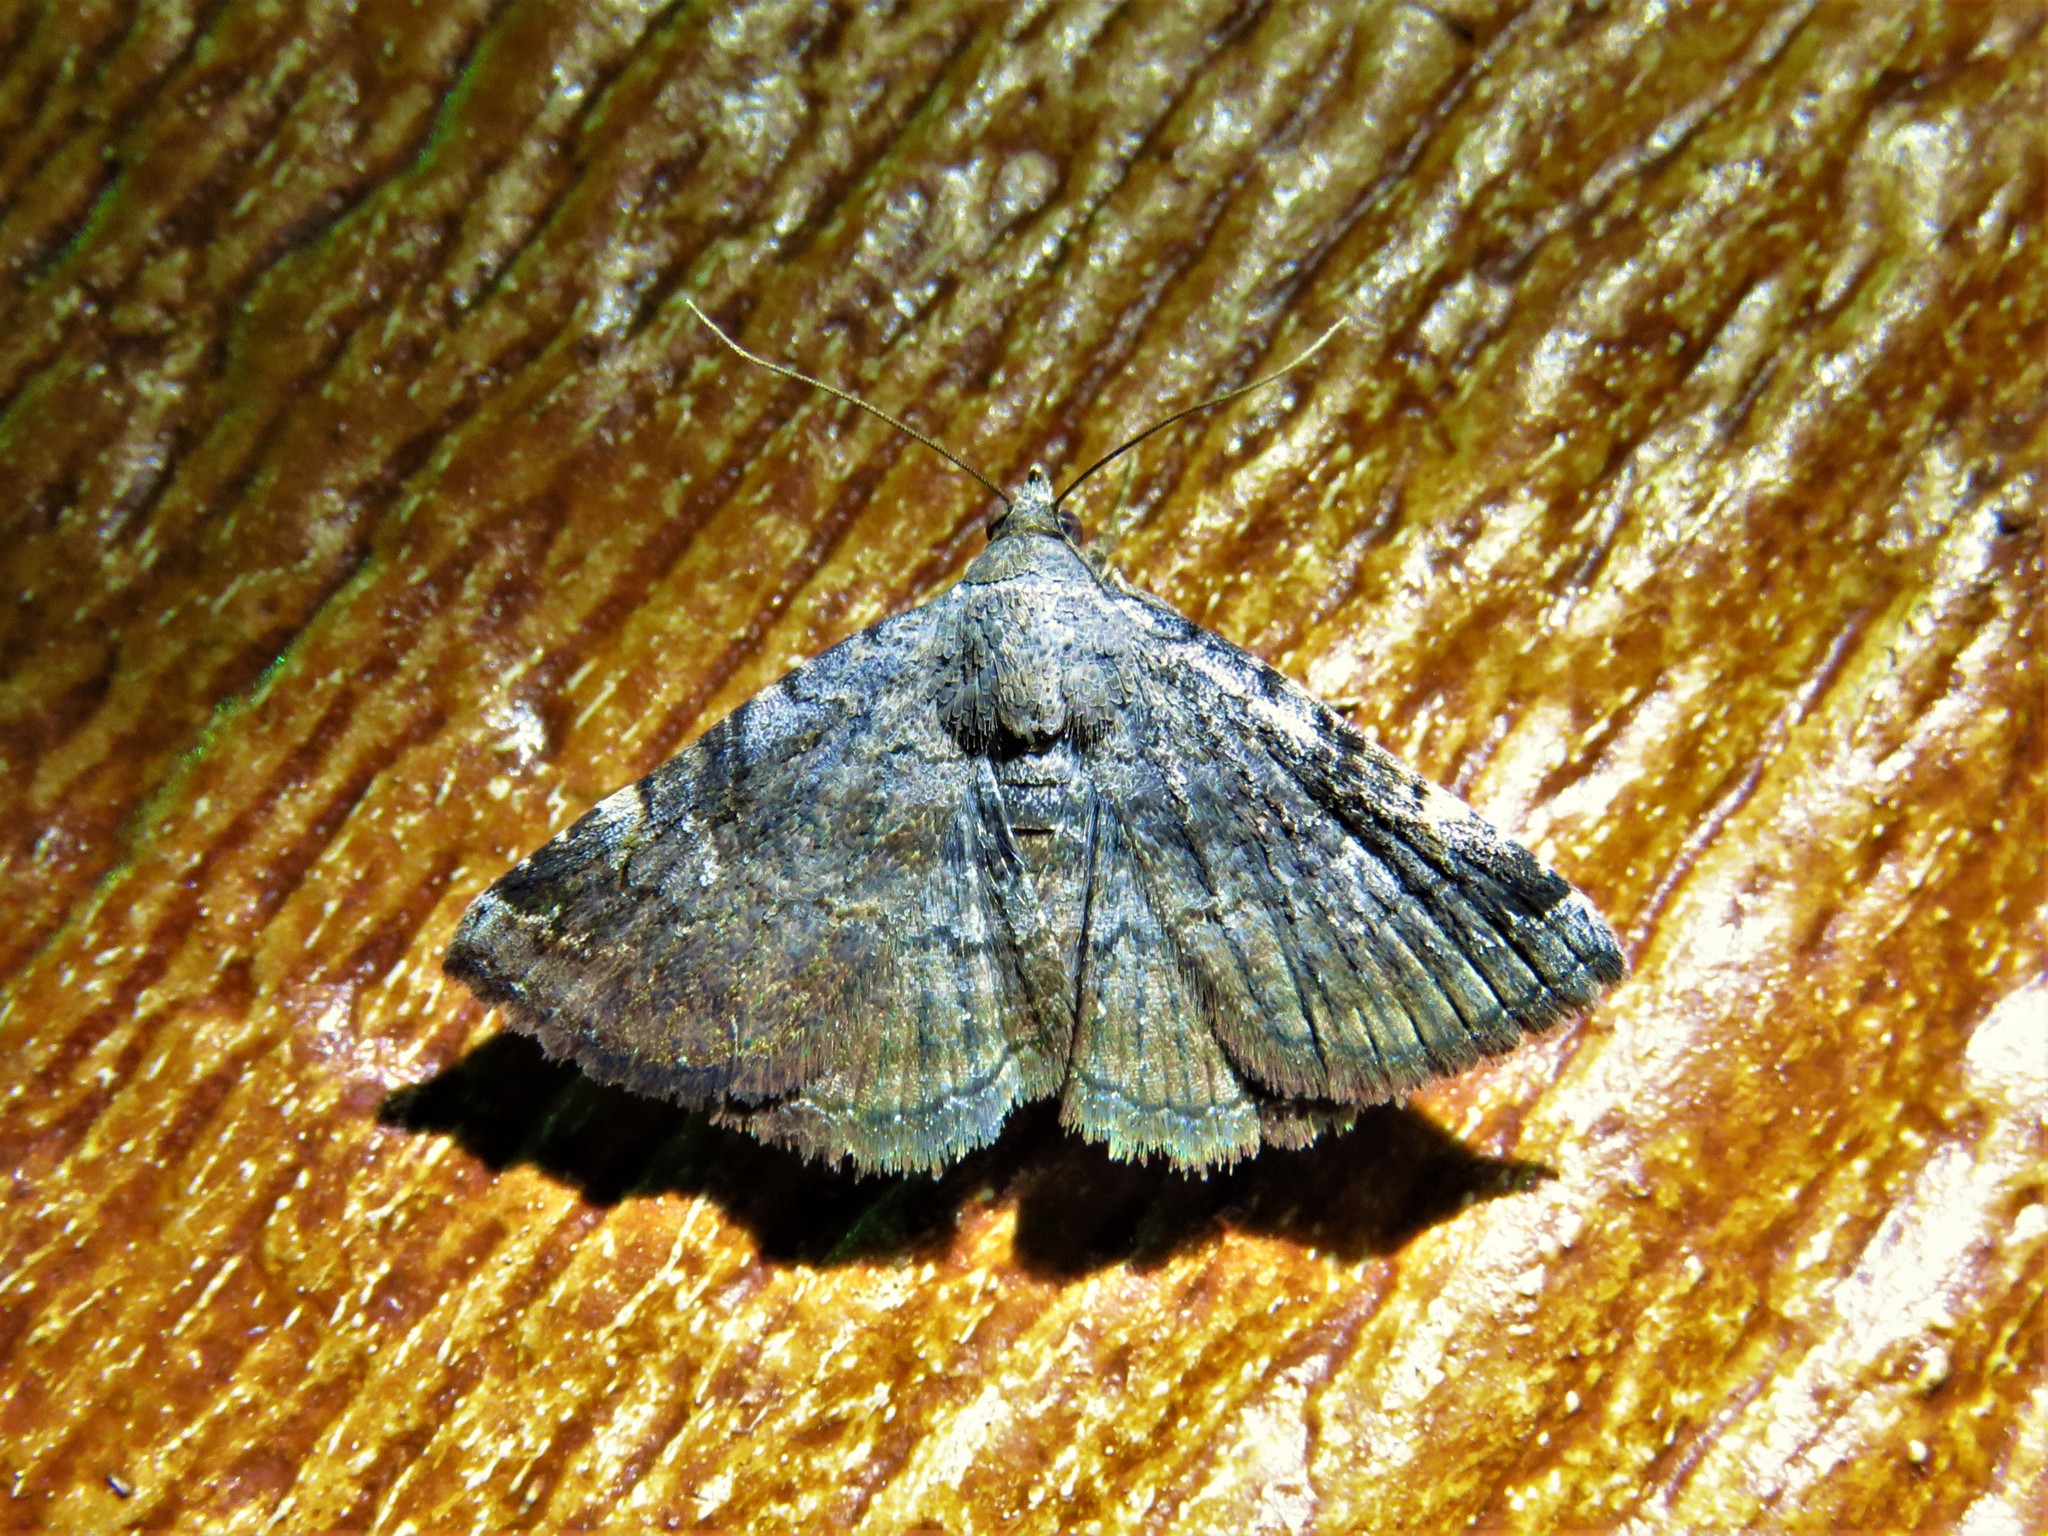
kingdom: Animalia
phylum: Arthropoda
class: Insecta
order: Lepidoptera
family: Erebidae
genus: Toxonprucha
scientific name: Toxonprucha crudelis
